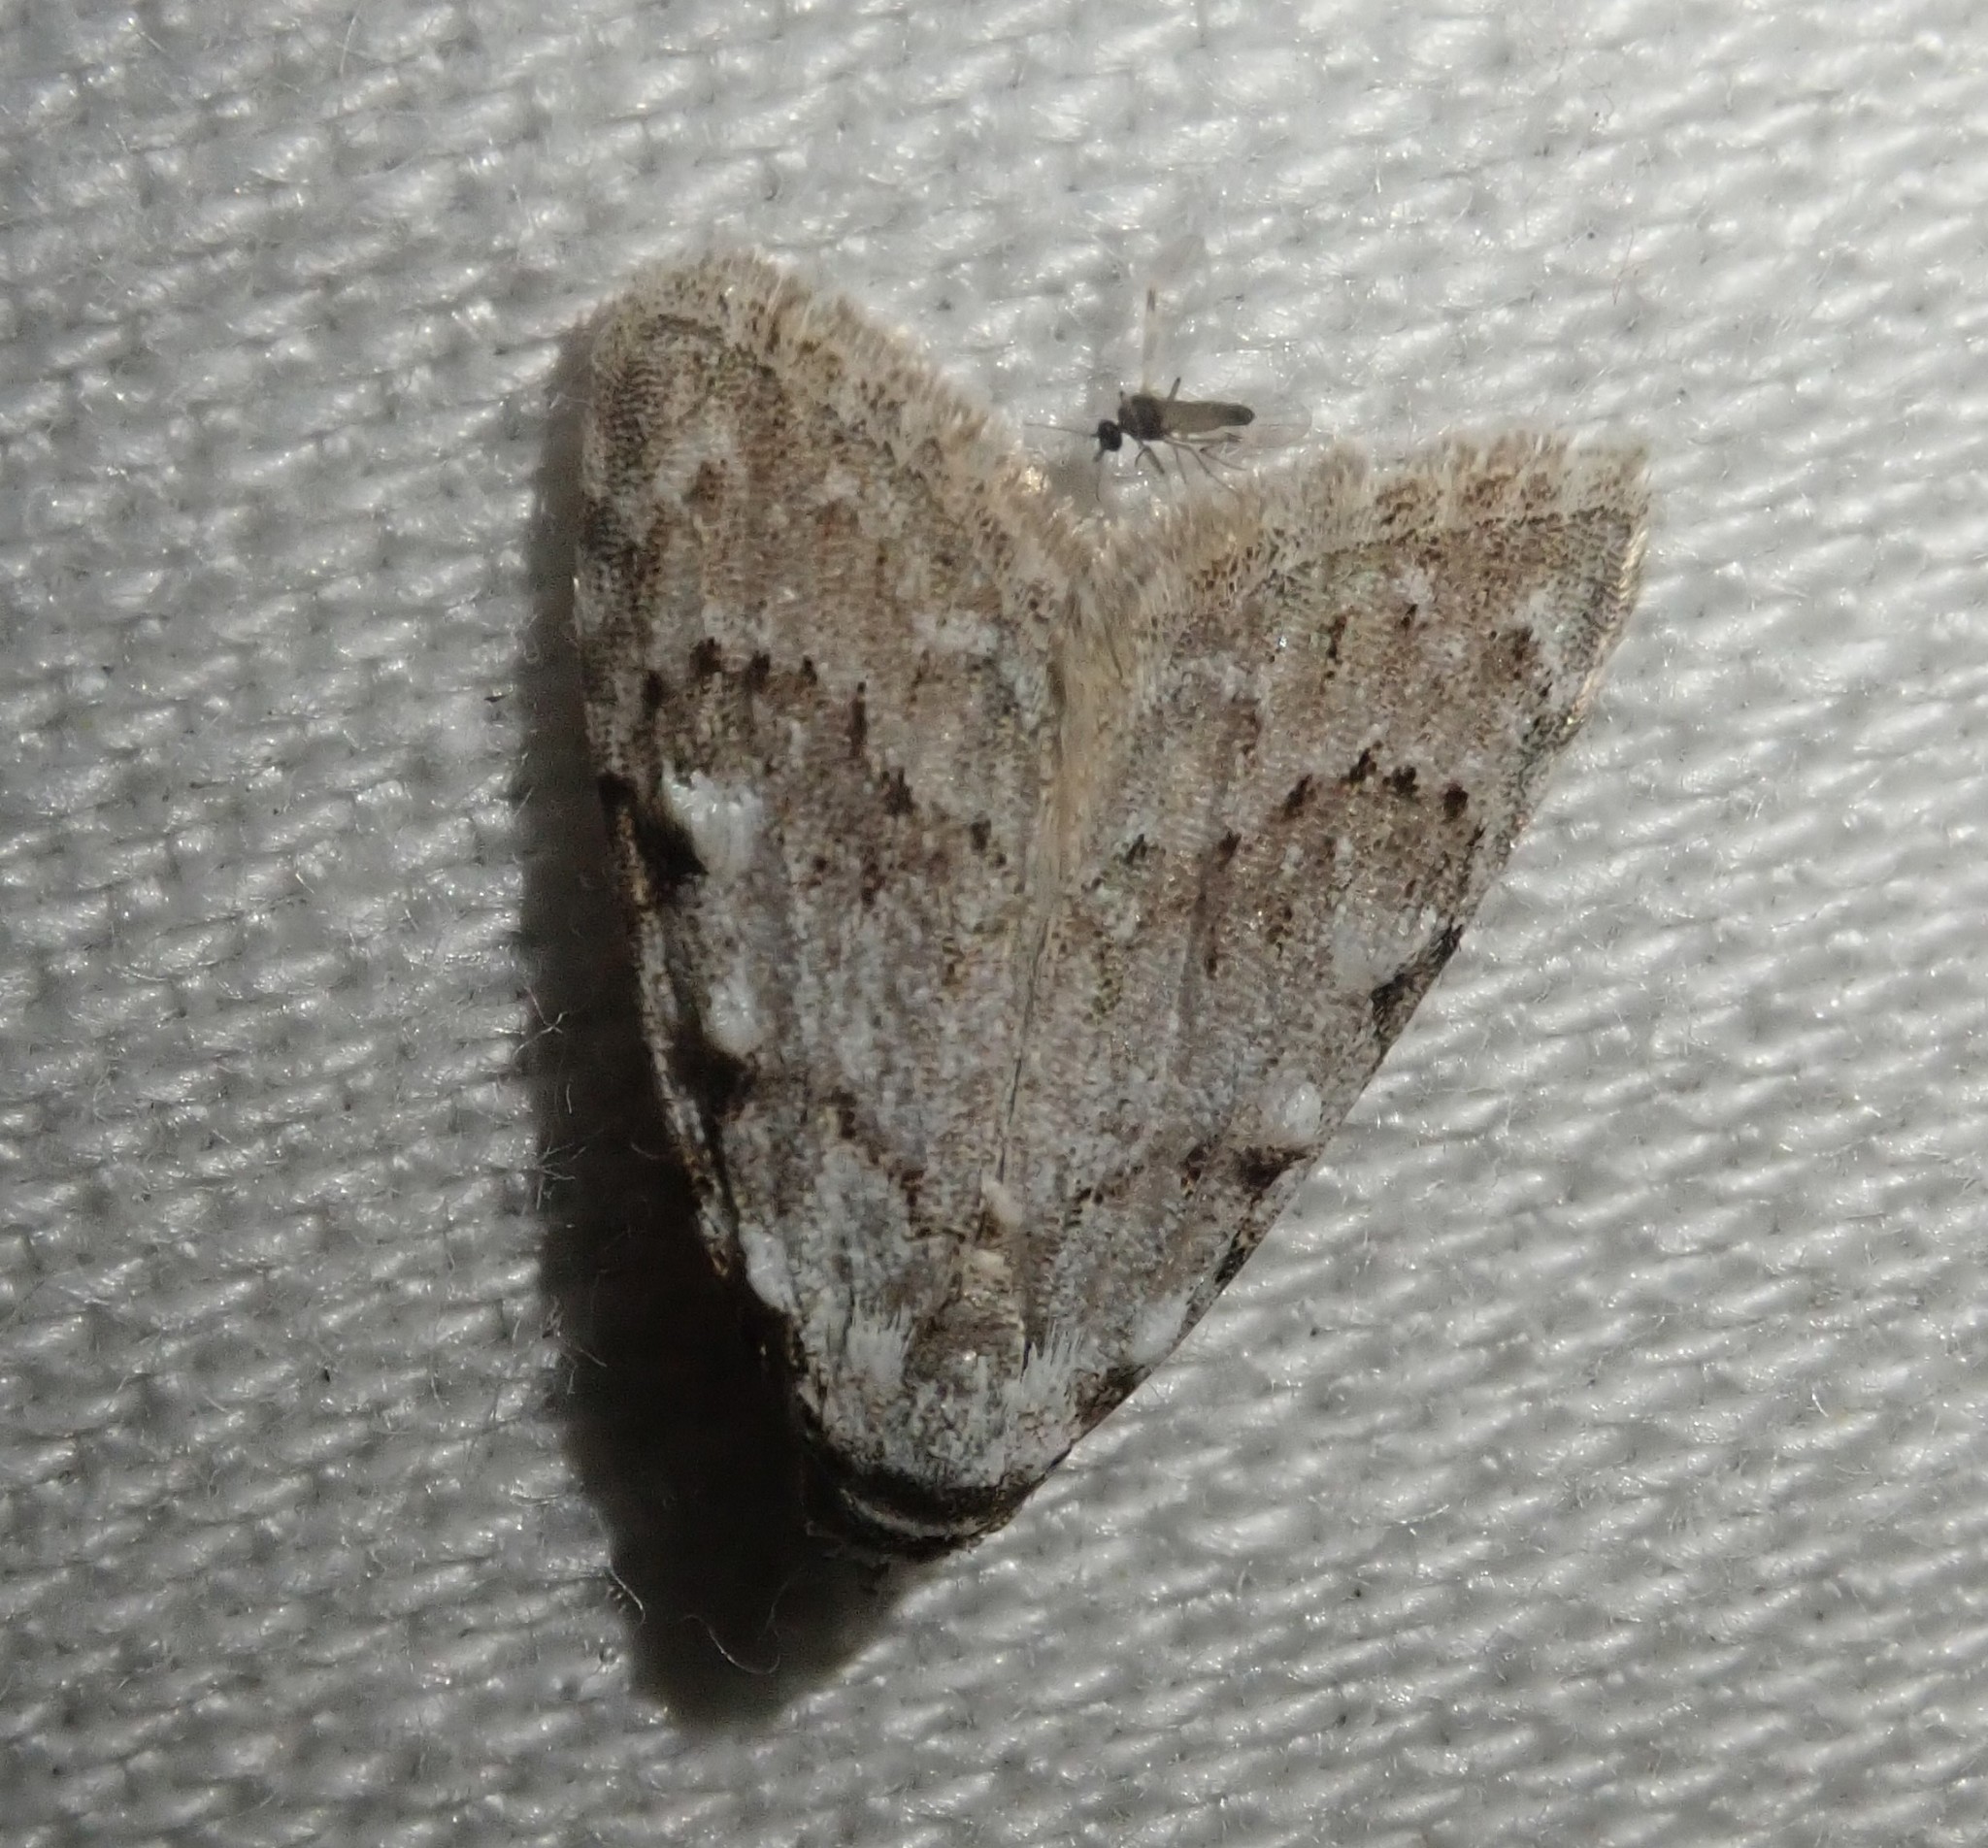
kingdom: Animalia
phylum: Arthropoda
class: Insecta
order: Lepidoptera
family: Nolidae
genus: Nola
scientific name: Nola confusalis
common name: Least black arches
